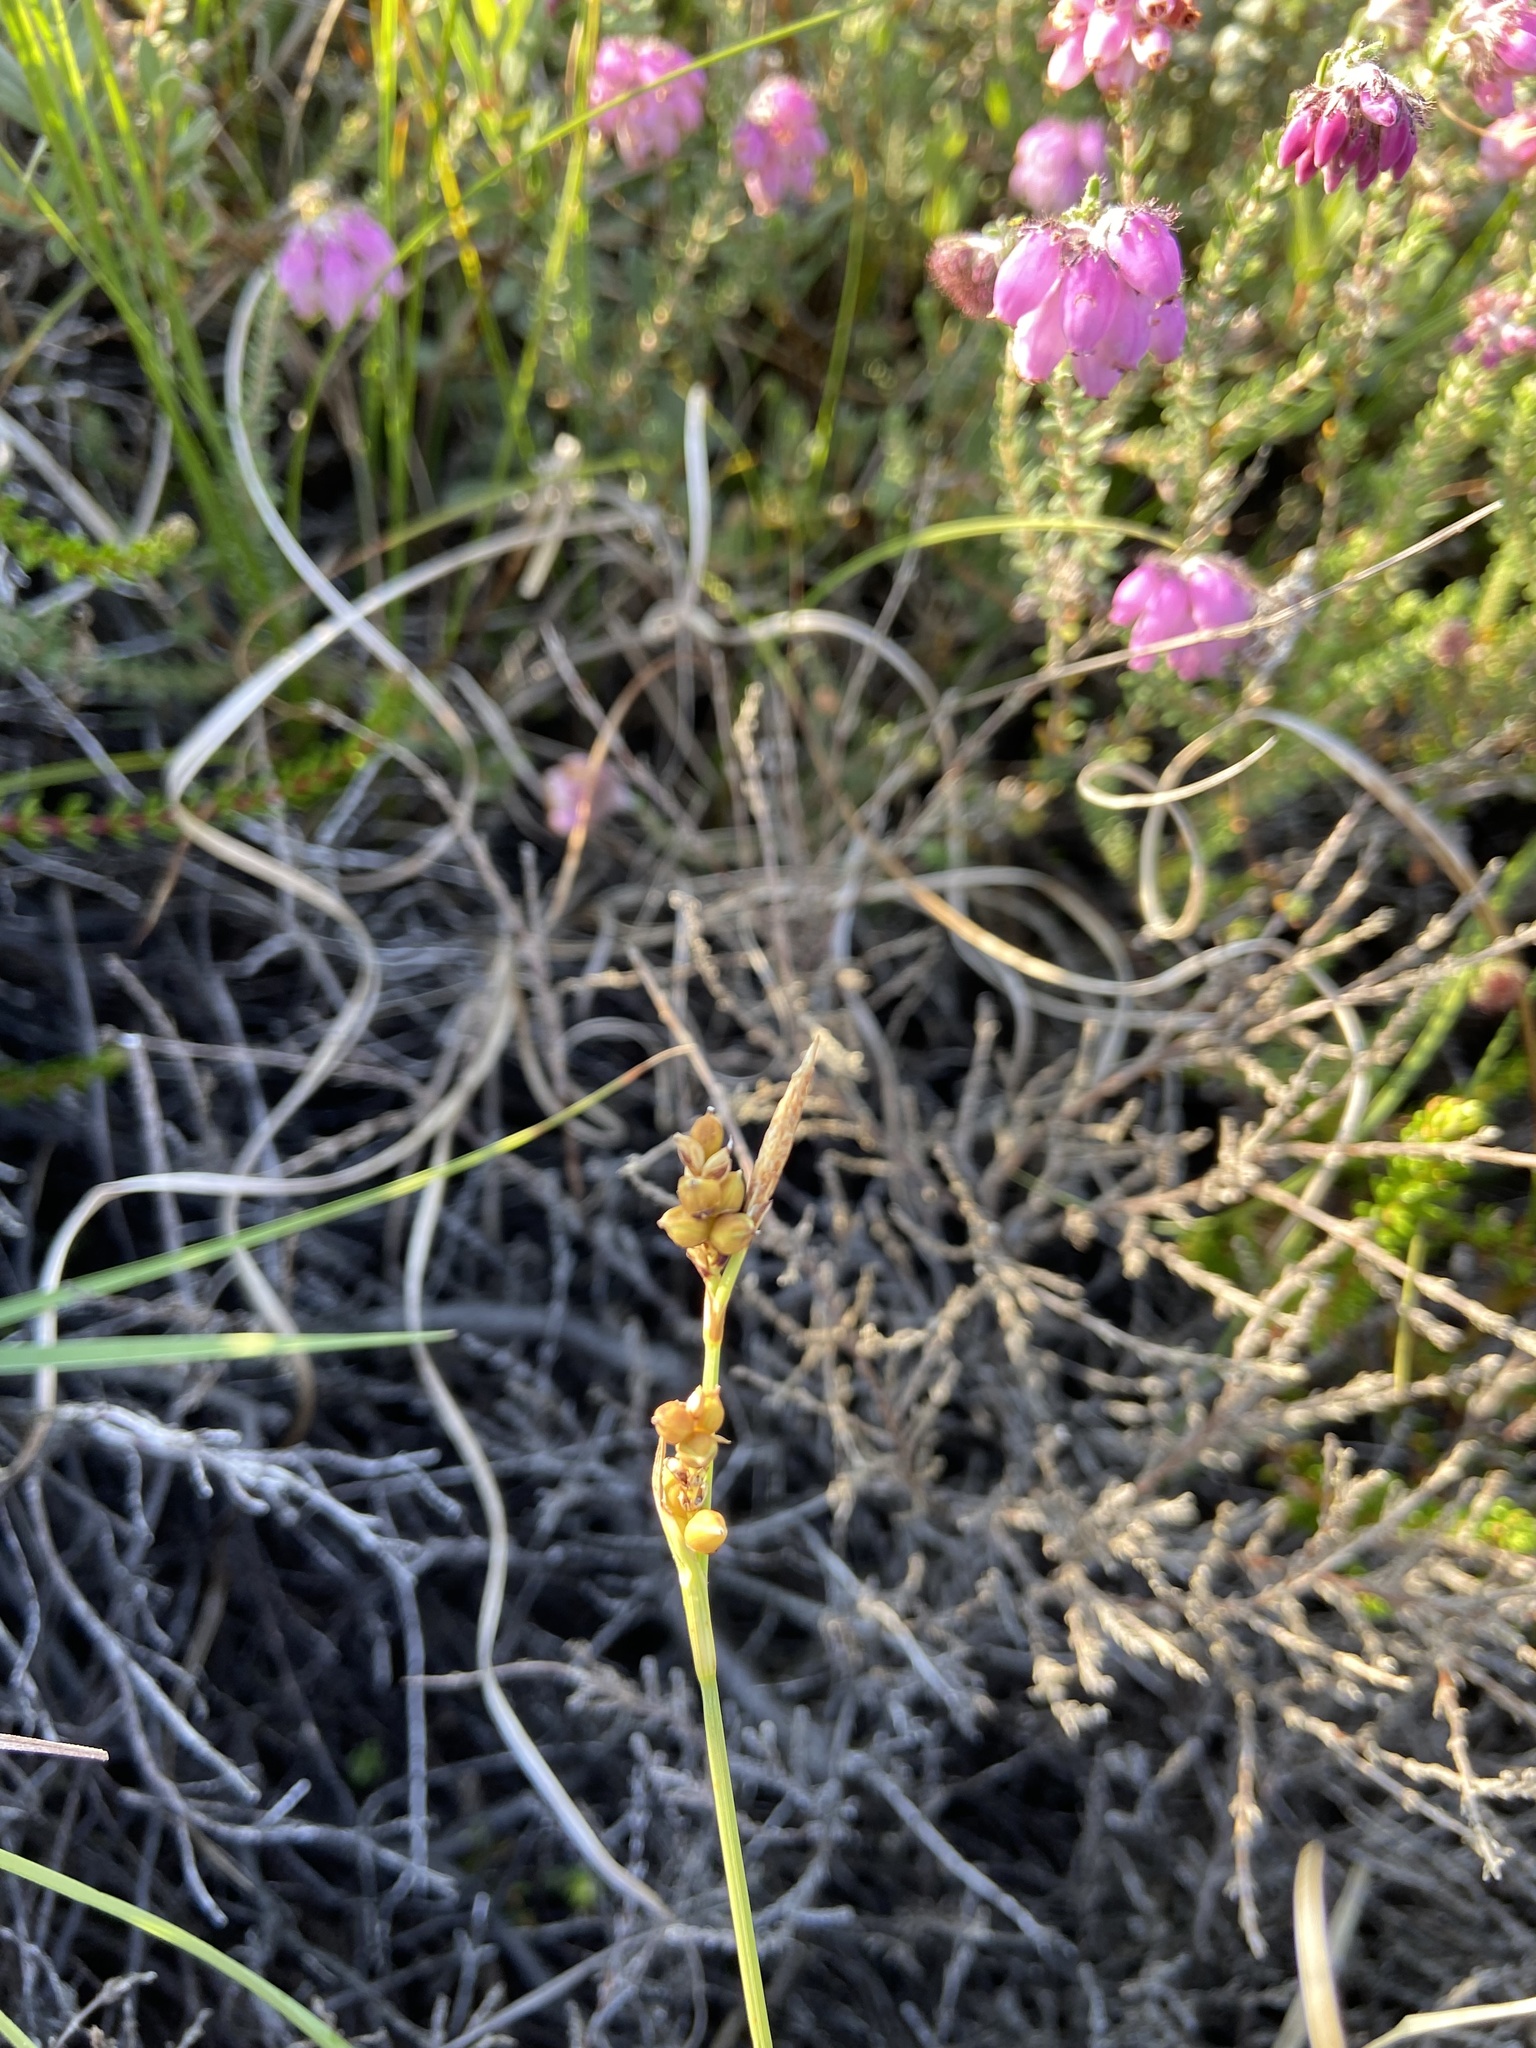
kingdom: Plantae
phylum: Tracheophyta
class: Liliopsida
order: Poales
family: Cyperaceae
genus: Carex
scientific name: Carex panicea
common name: Carnation sedge
